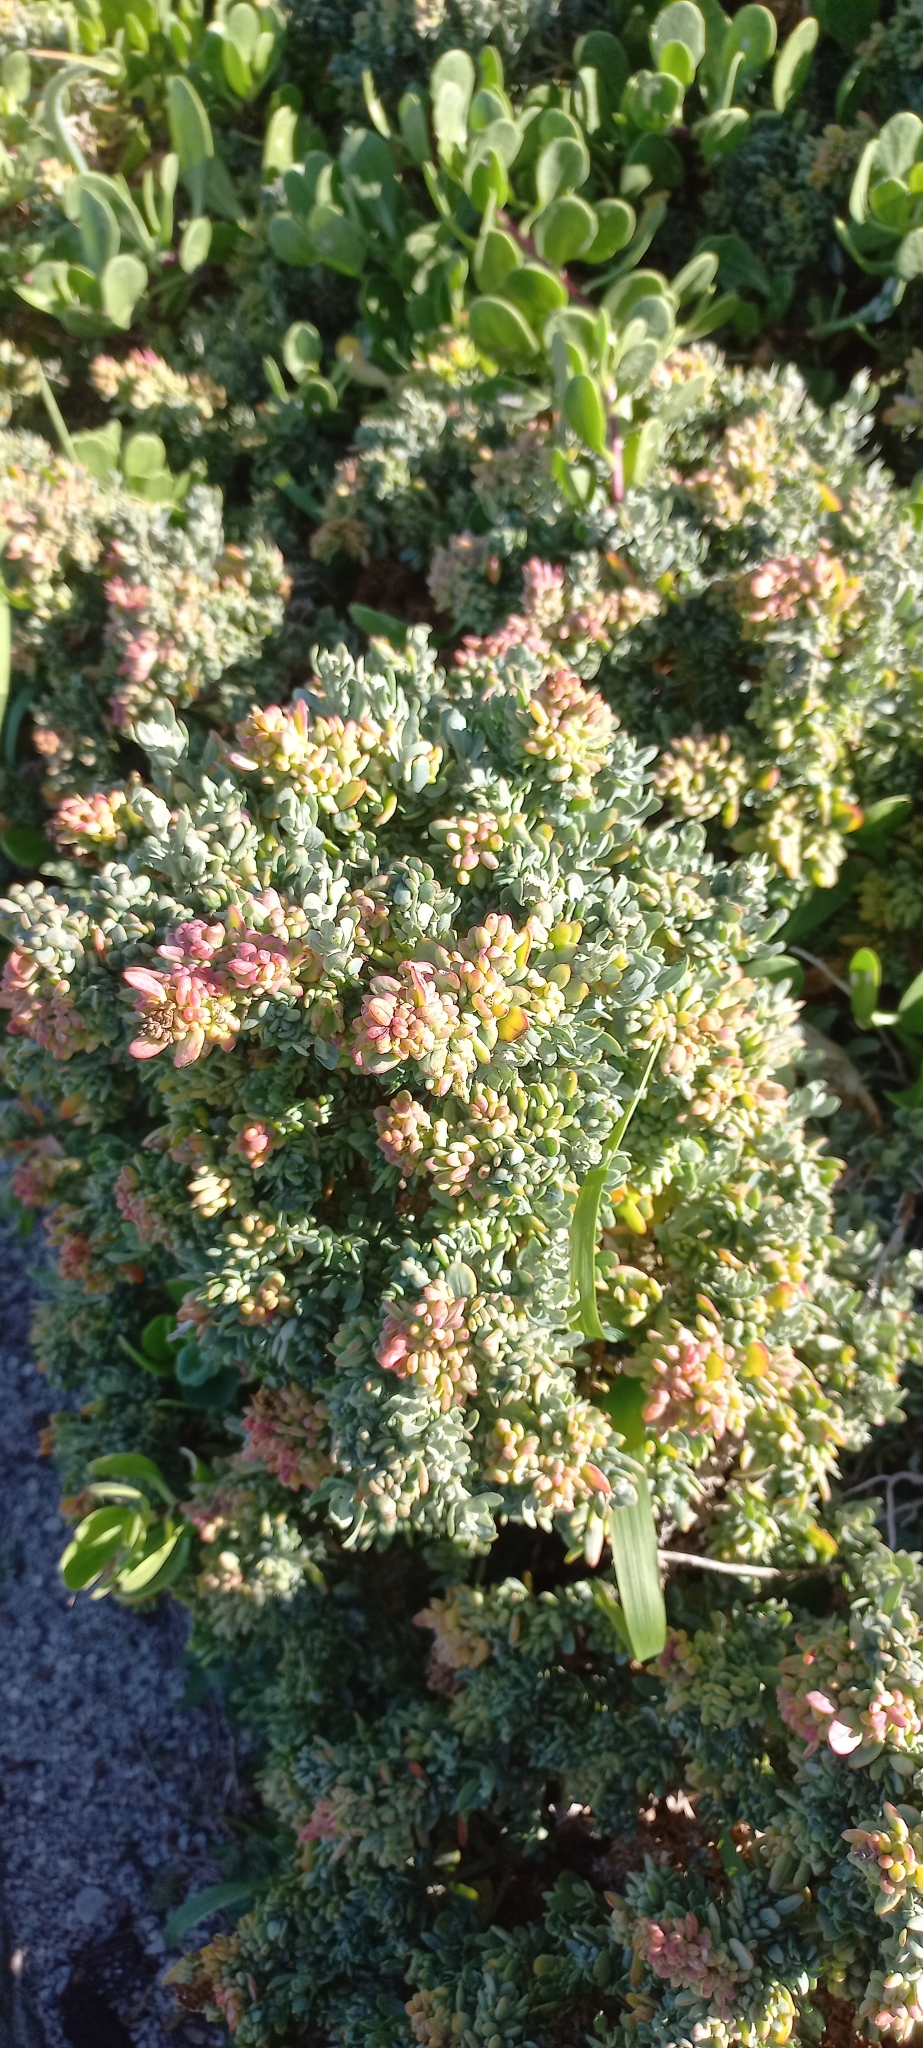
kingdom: Plantae
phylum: Tracheophyta
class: Magnoliopsida
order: Caryophyllales
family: Aizoaceae
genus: Tetragonia
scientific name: Tetragonia fruticosa
